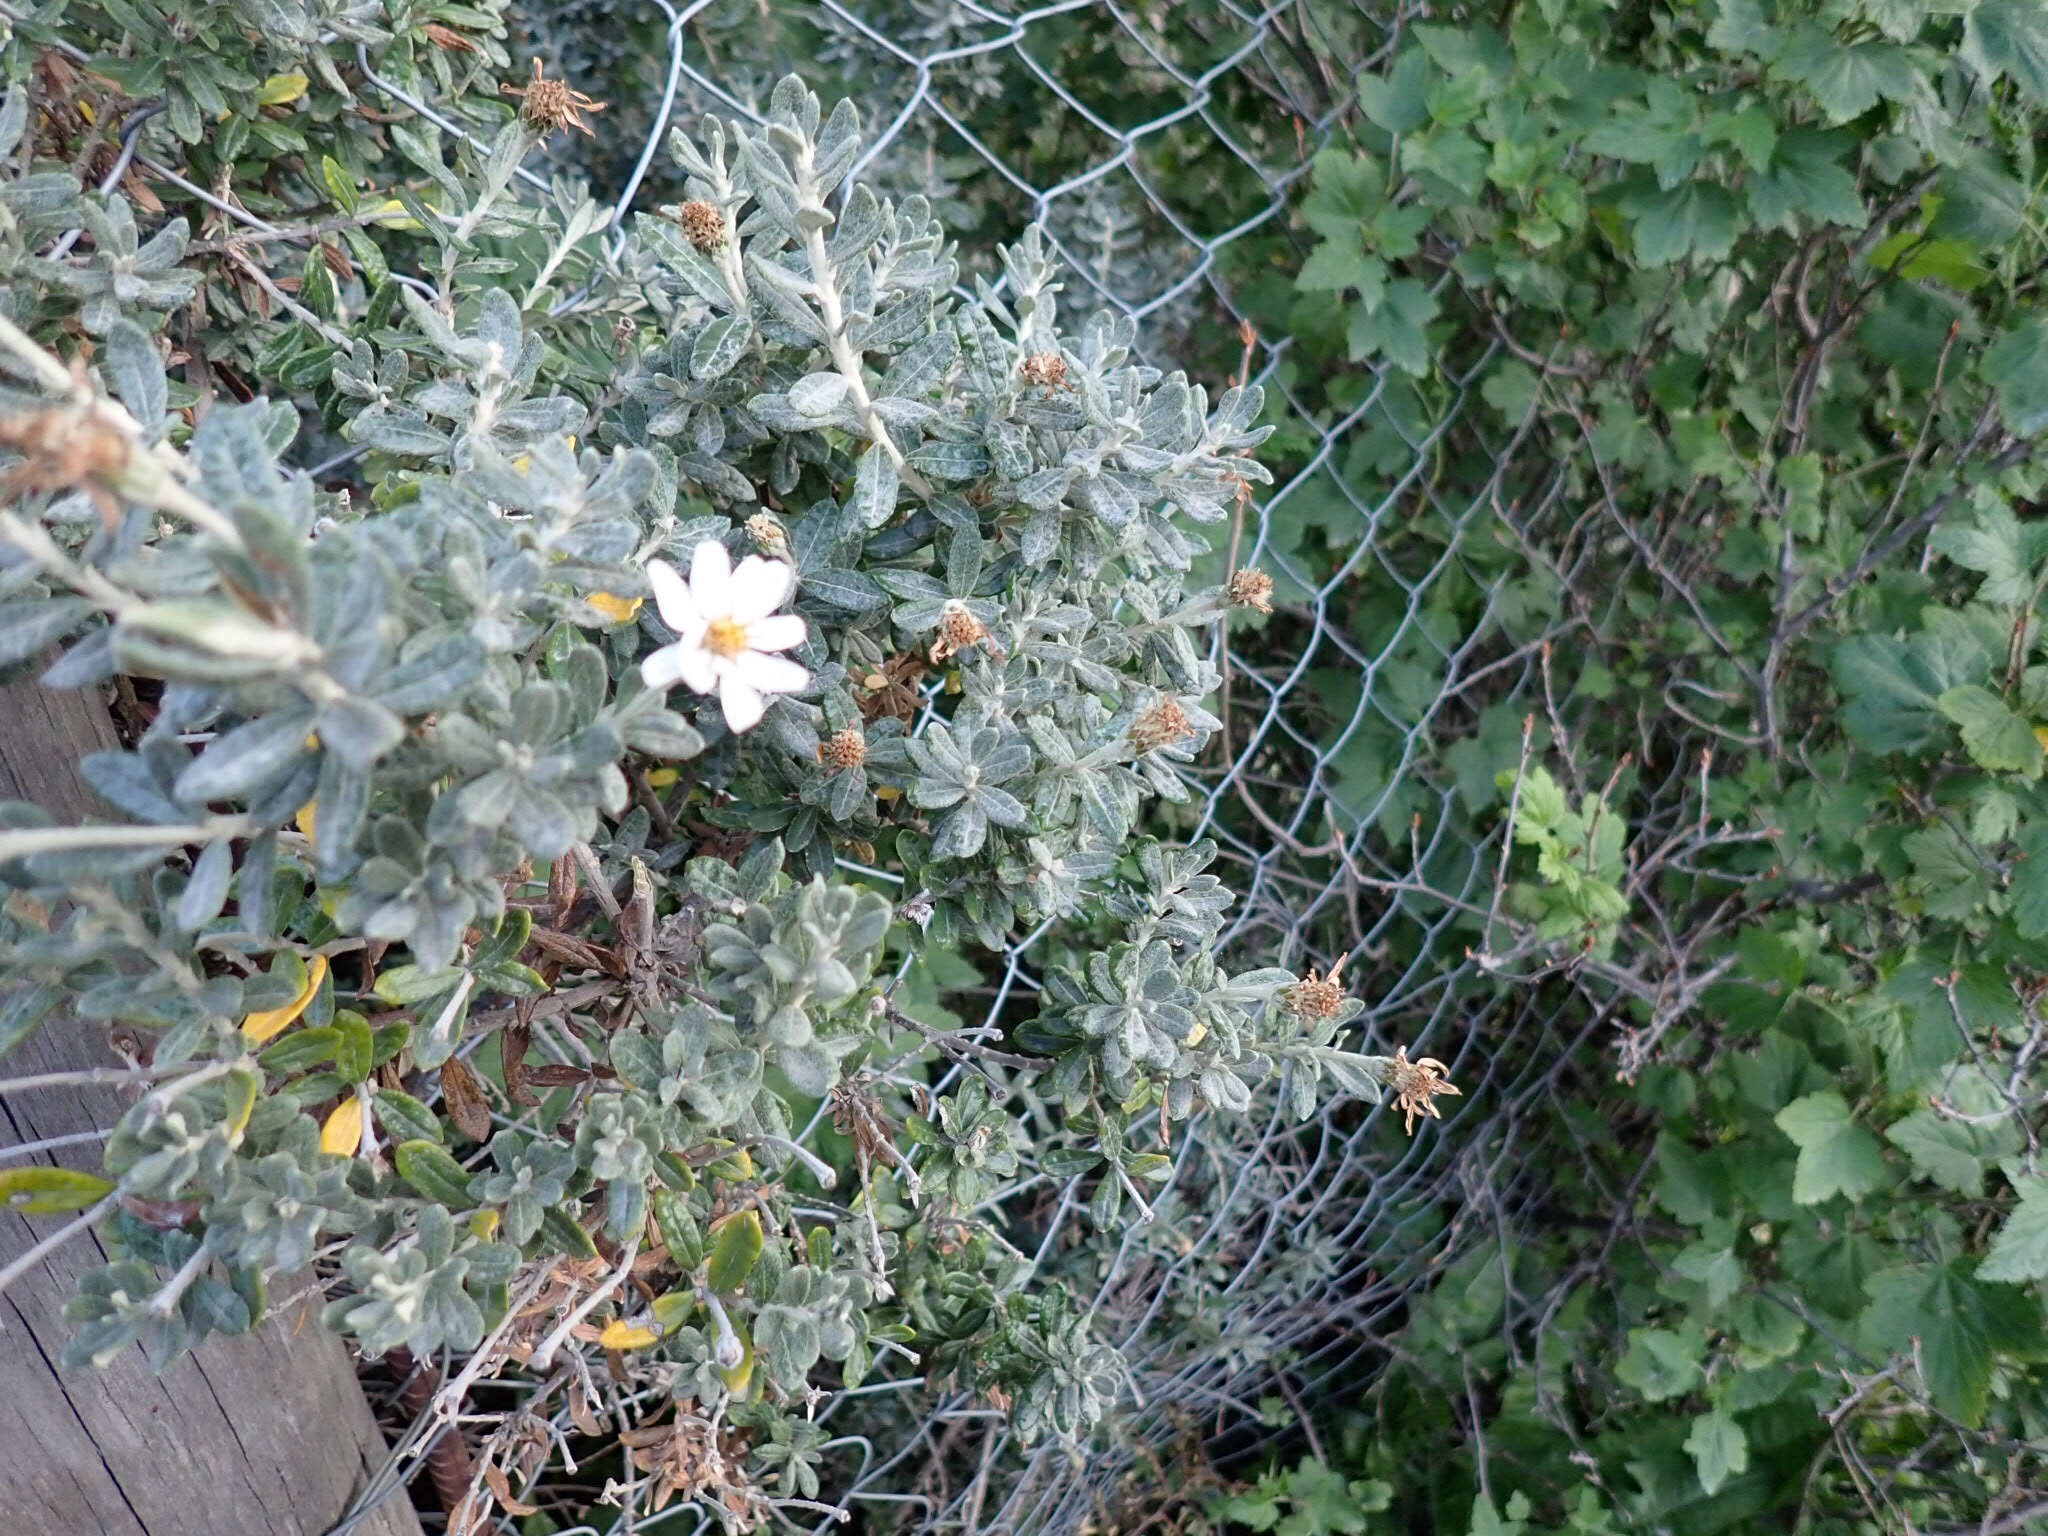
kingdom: Plantae
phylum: Tracheophyta
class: Magnoliopsida
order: Asterales
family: Asteraceae
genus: Chiliotrichum
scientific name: Chiliotrichum diffusum
